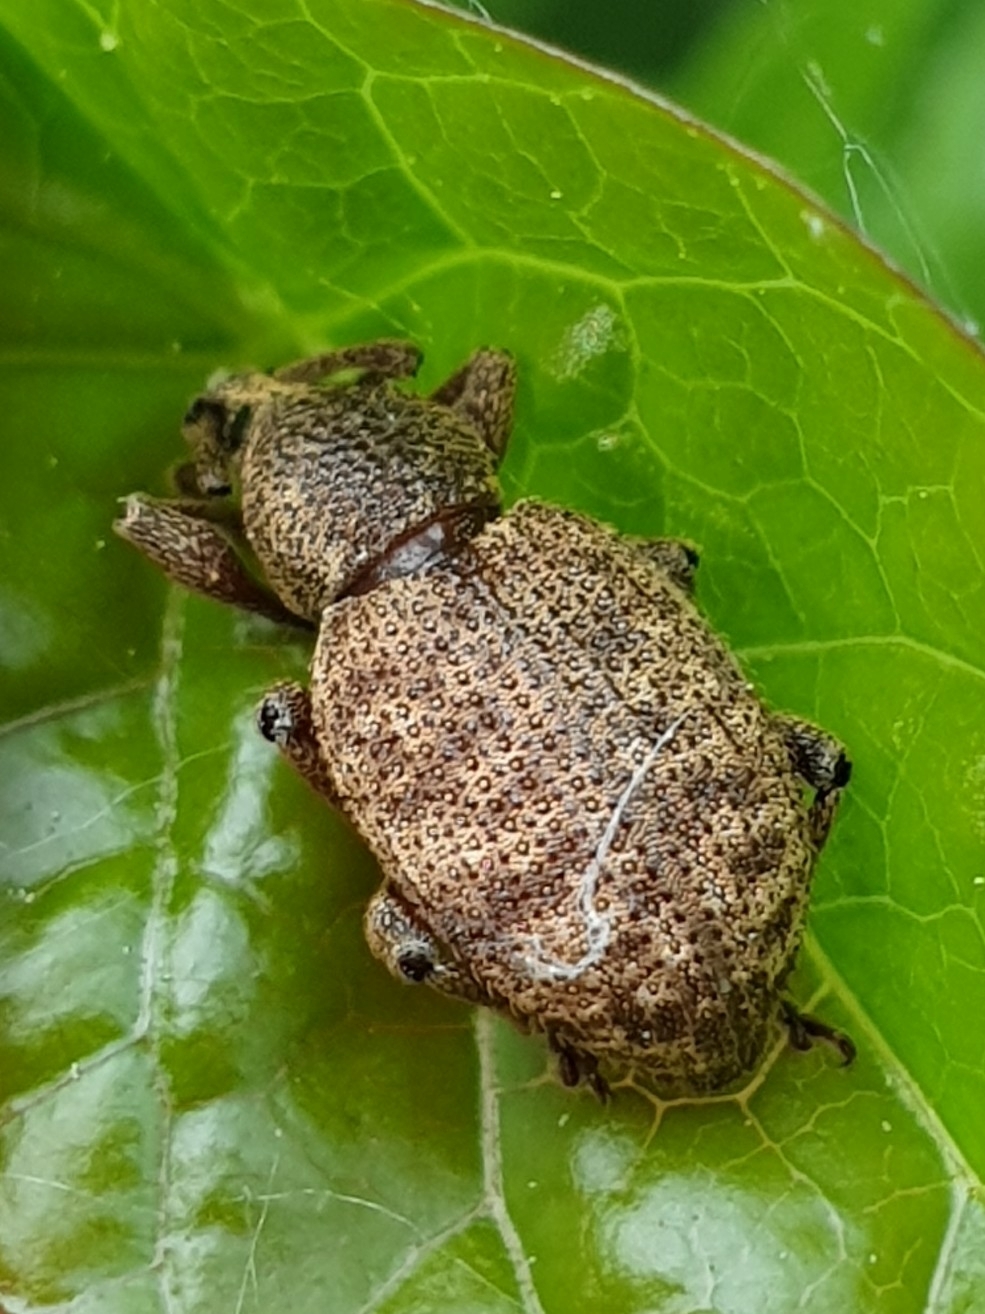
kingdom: Animalia
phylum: Arthropoda
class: Insecta
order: Coleoptera
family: Curculionidae
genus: Otiorhynchus
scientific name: Otiorhynchus singularis
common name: Clay-coloured weevil
